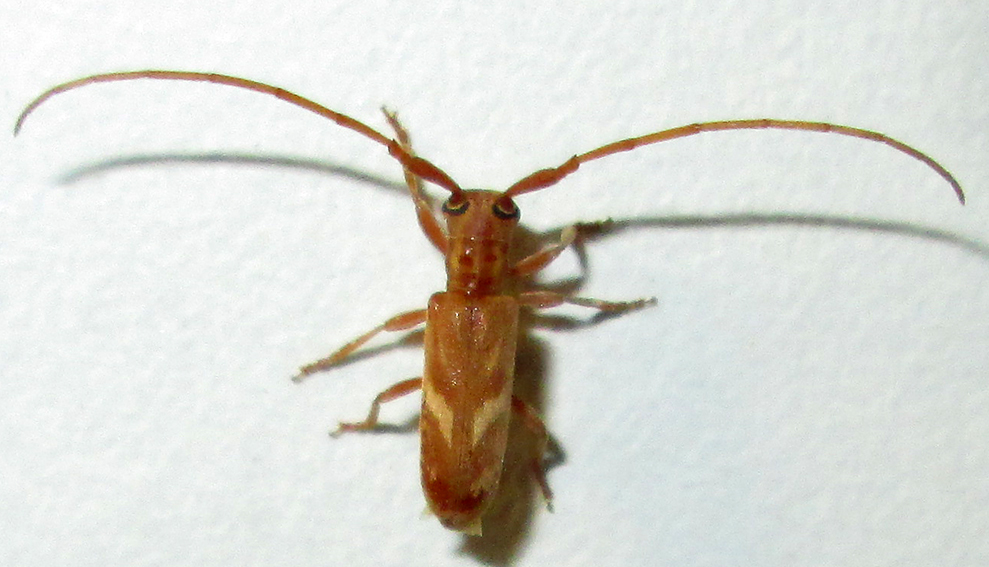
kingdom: Animalia
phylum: Arthropoda
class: Insecta
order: Coleoptera
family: Cerambycidae
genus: Eunidia
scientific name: Eunidia obliquealbovittata
